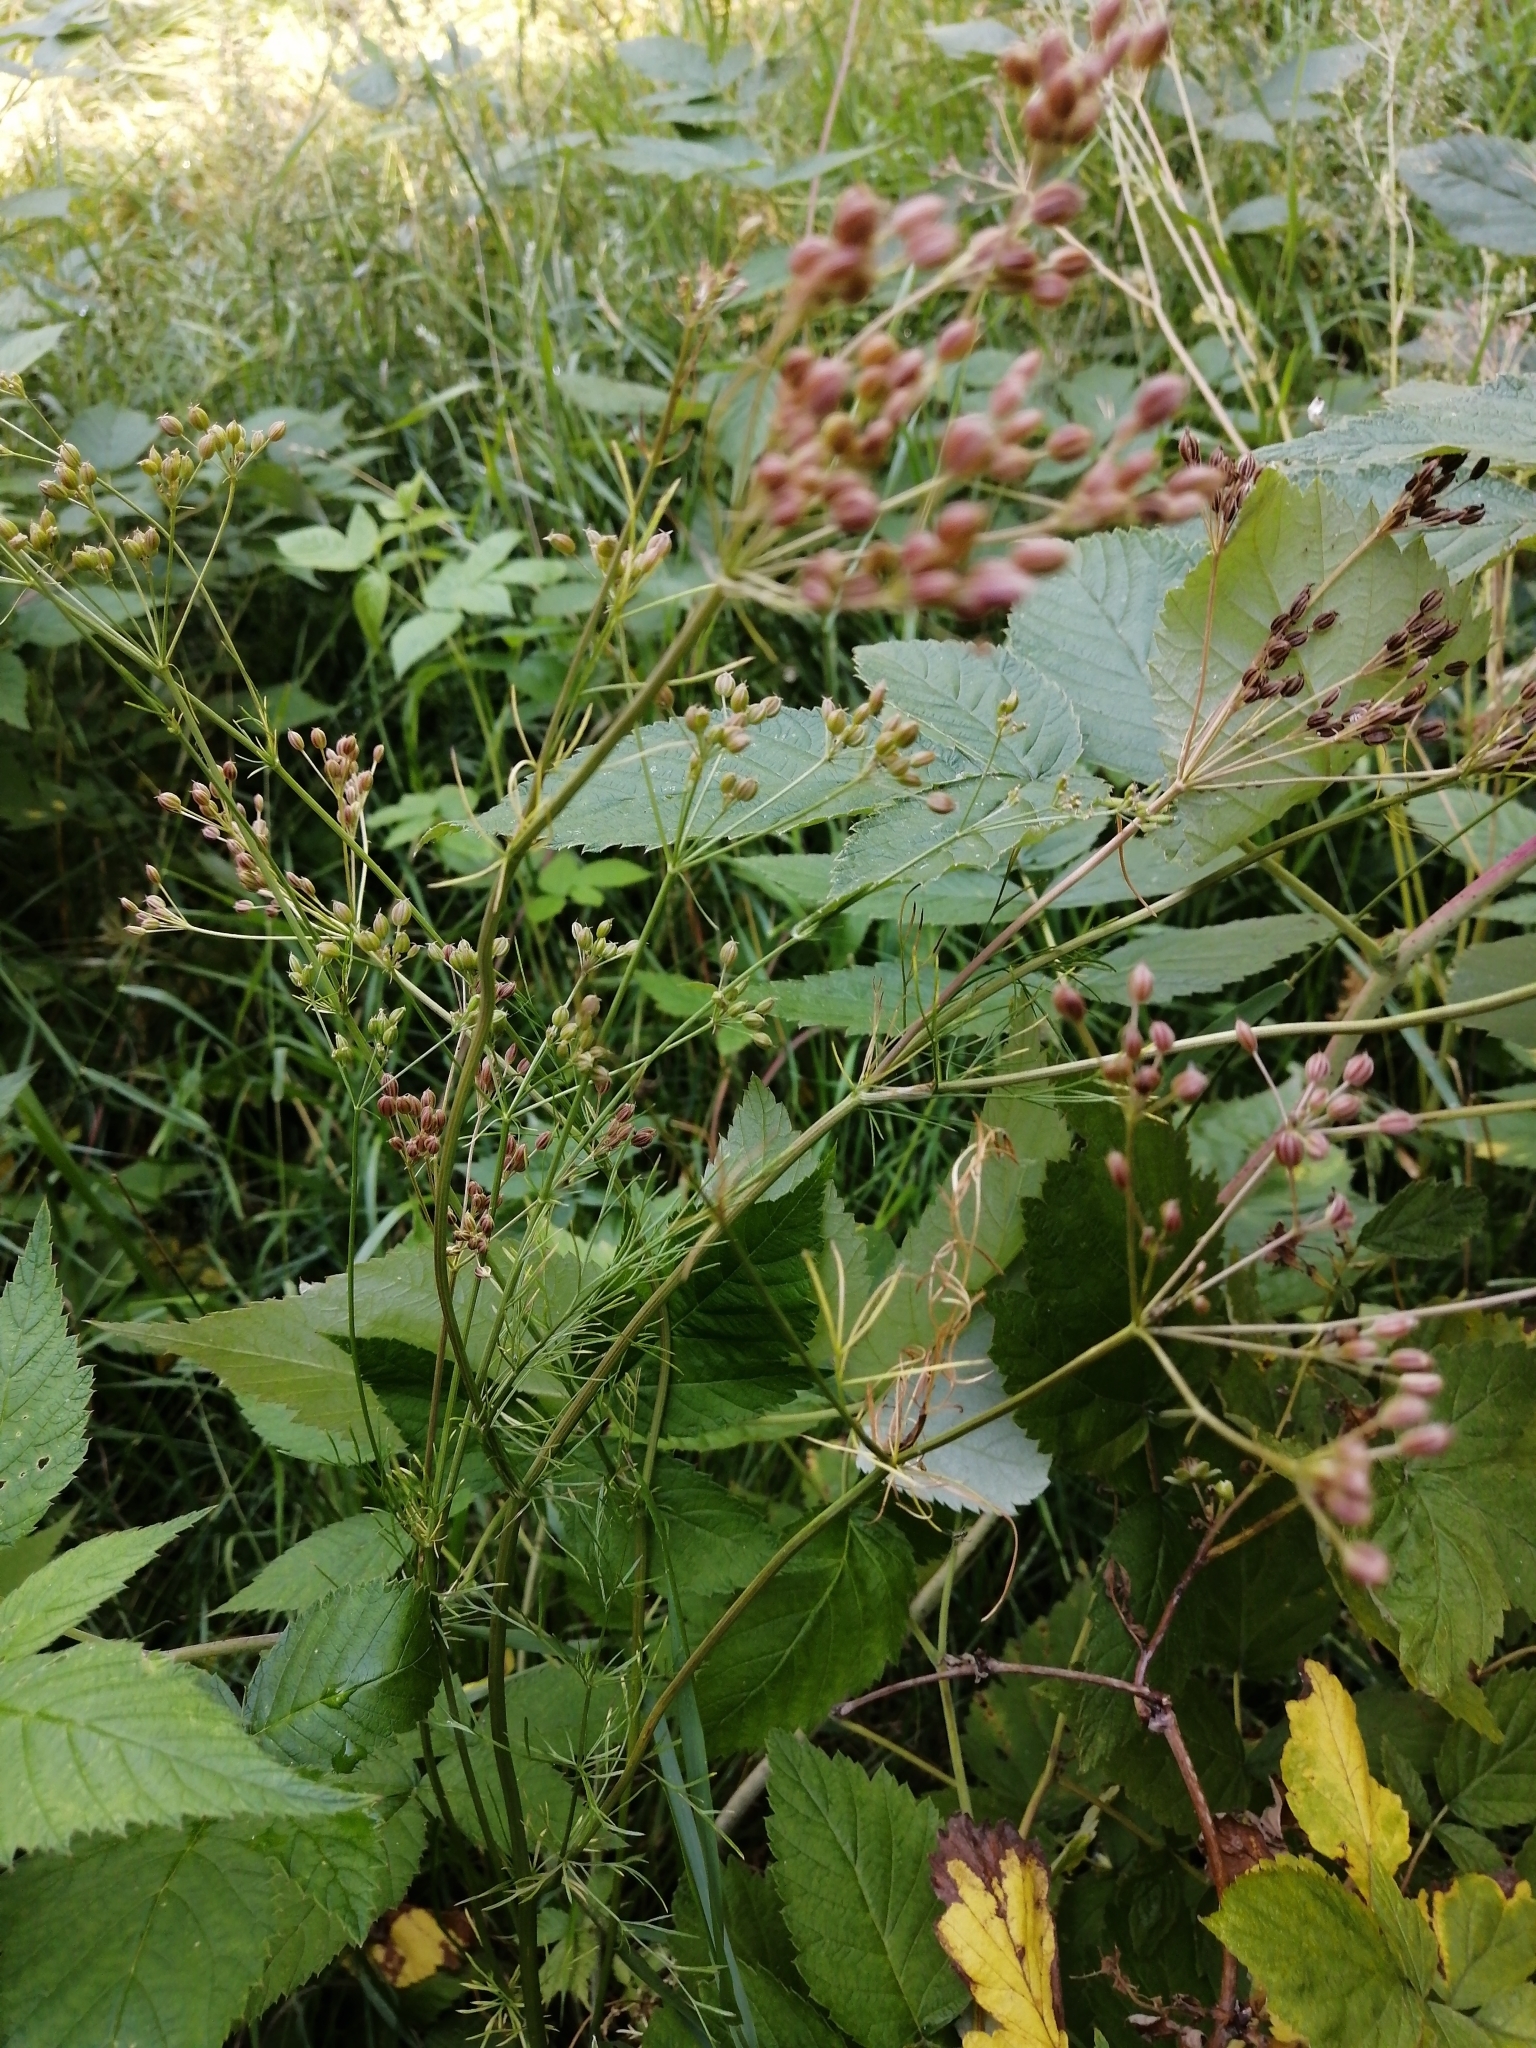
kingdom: Plantae
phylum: Tracheophyta
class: Magnoliopsida
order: Apiales
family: Apiaceae
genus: Carum
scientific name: Carum carvi
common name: Caraway
